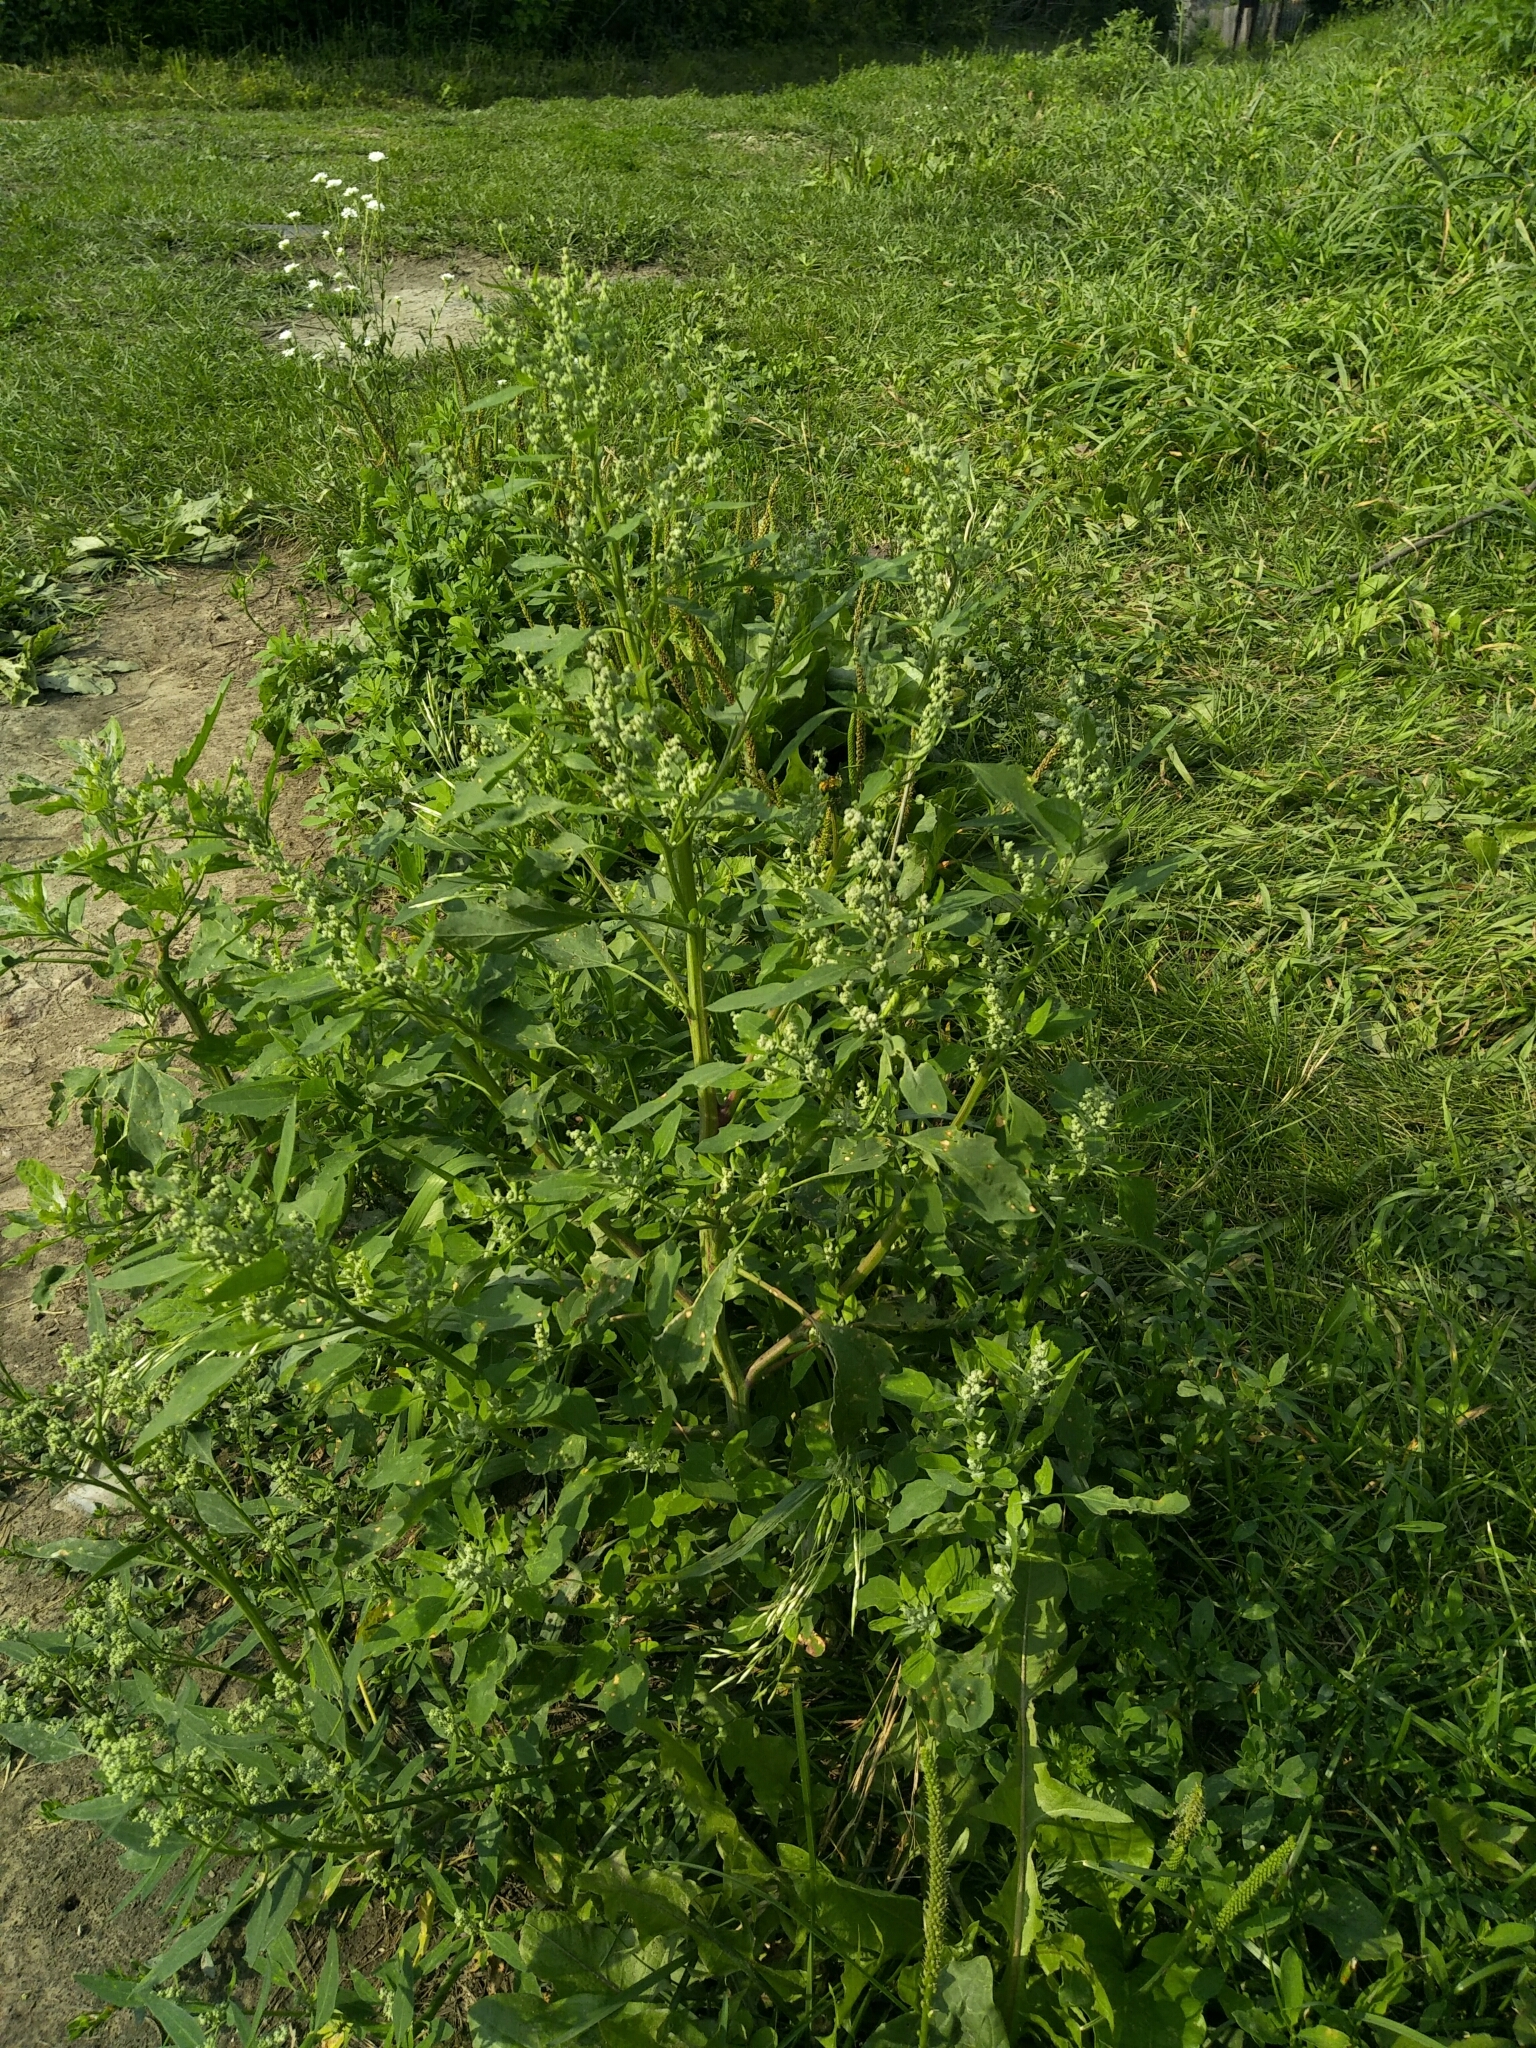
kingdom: Plantae
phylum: Tracheophyta
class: Magnoliopsida
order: Caryophyllales
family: Amaranthaceae
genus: Chenopodium
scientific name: Chenopodium album
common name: Fat-hen
